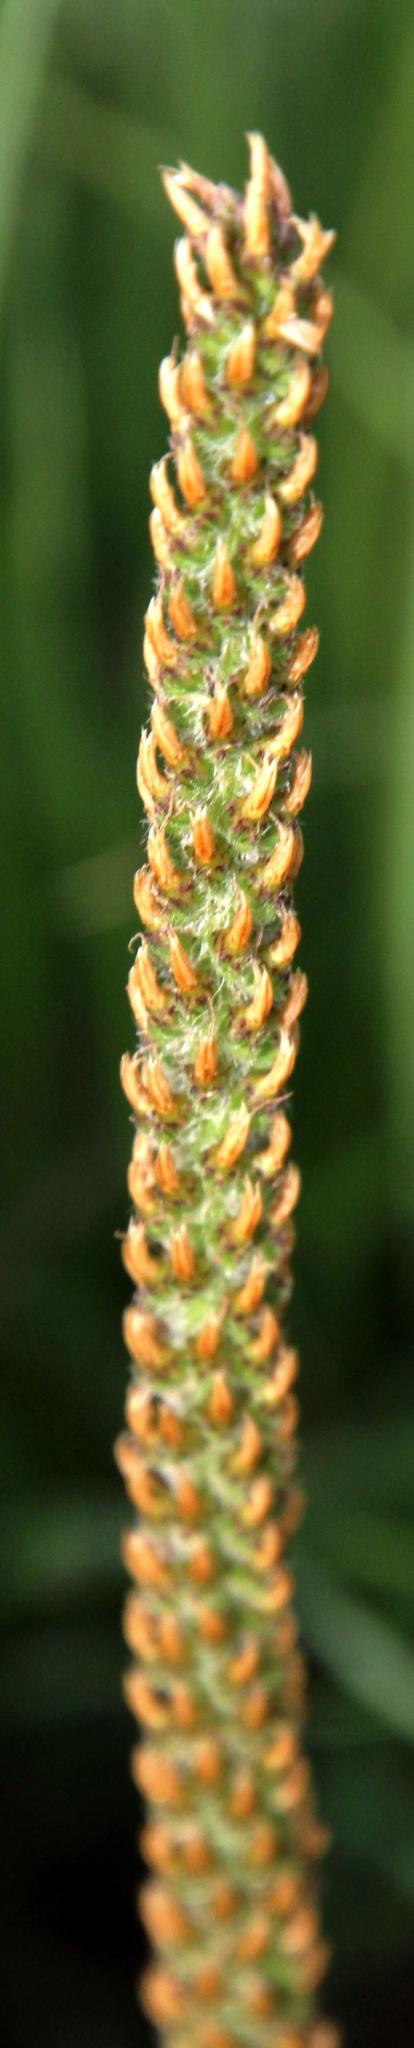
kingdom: Plantae
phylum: Tracheophyta
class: Magnoliopsida
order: Lamiales
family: Plantaginaceae
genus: Plantago
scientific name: Plantago tomentosa
